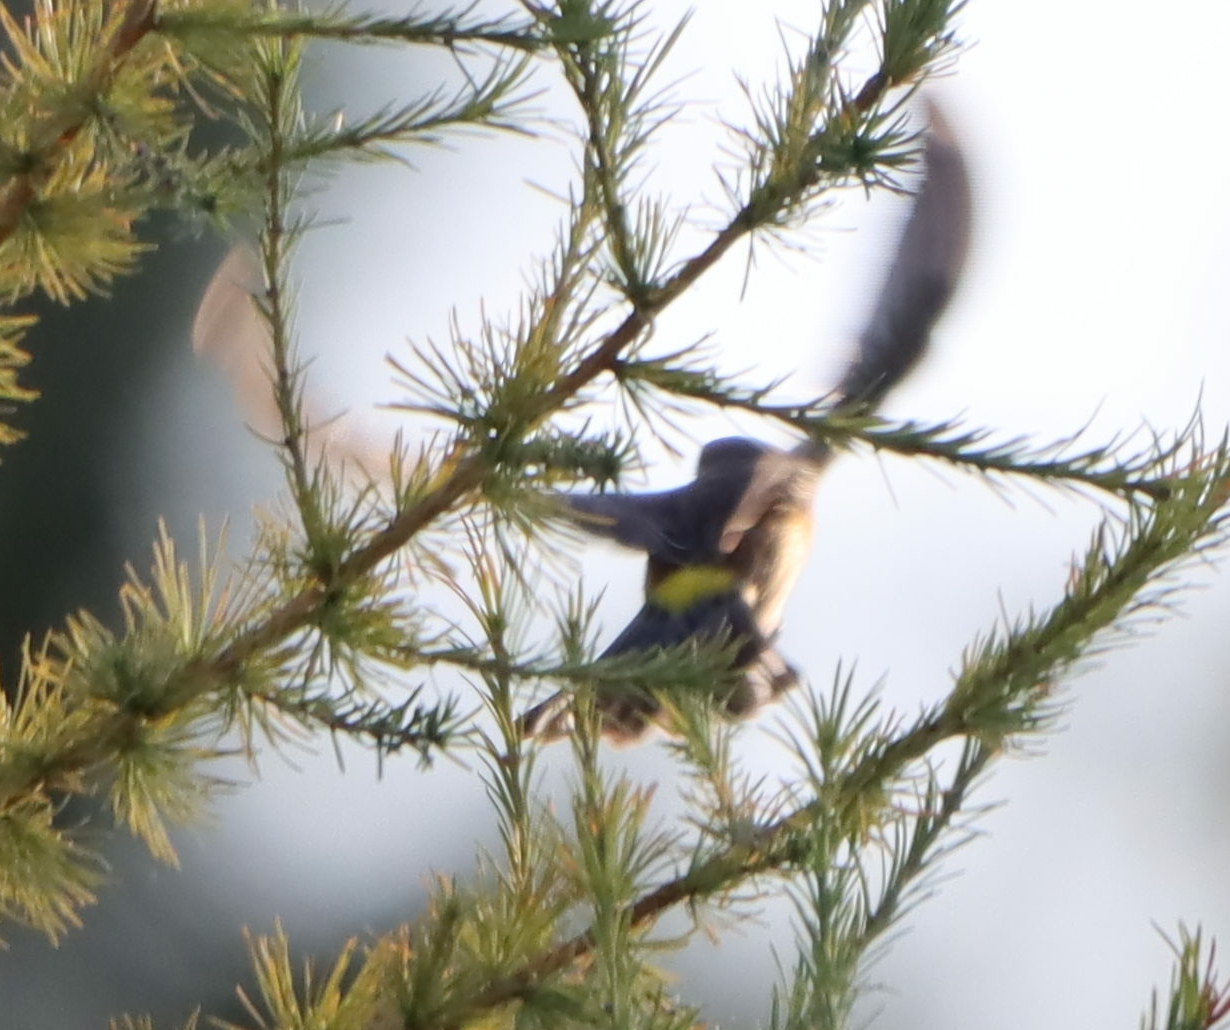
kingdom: Animalia
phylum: Chordata
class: Aves
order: Passeriformes
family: Parulidae
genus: Setophaga
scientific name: Setophaga coronata
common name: Myrtle warbler
